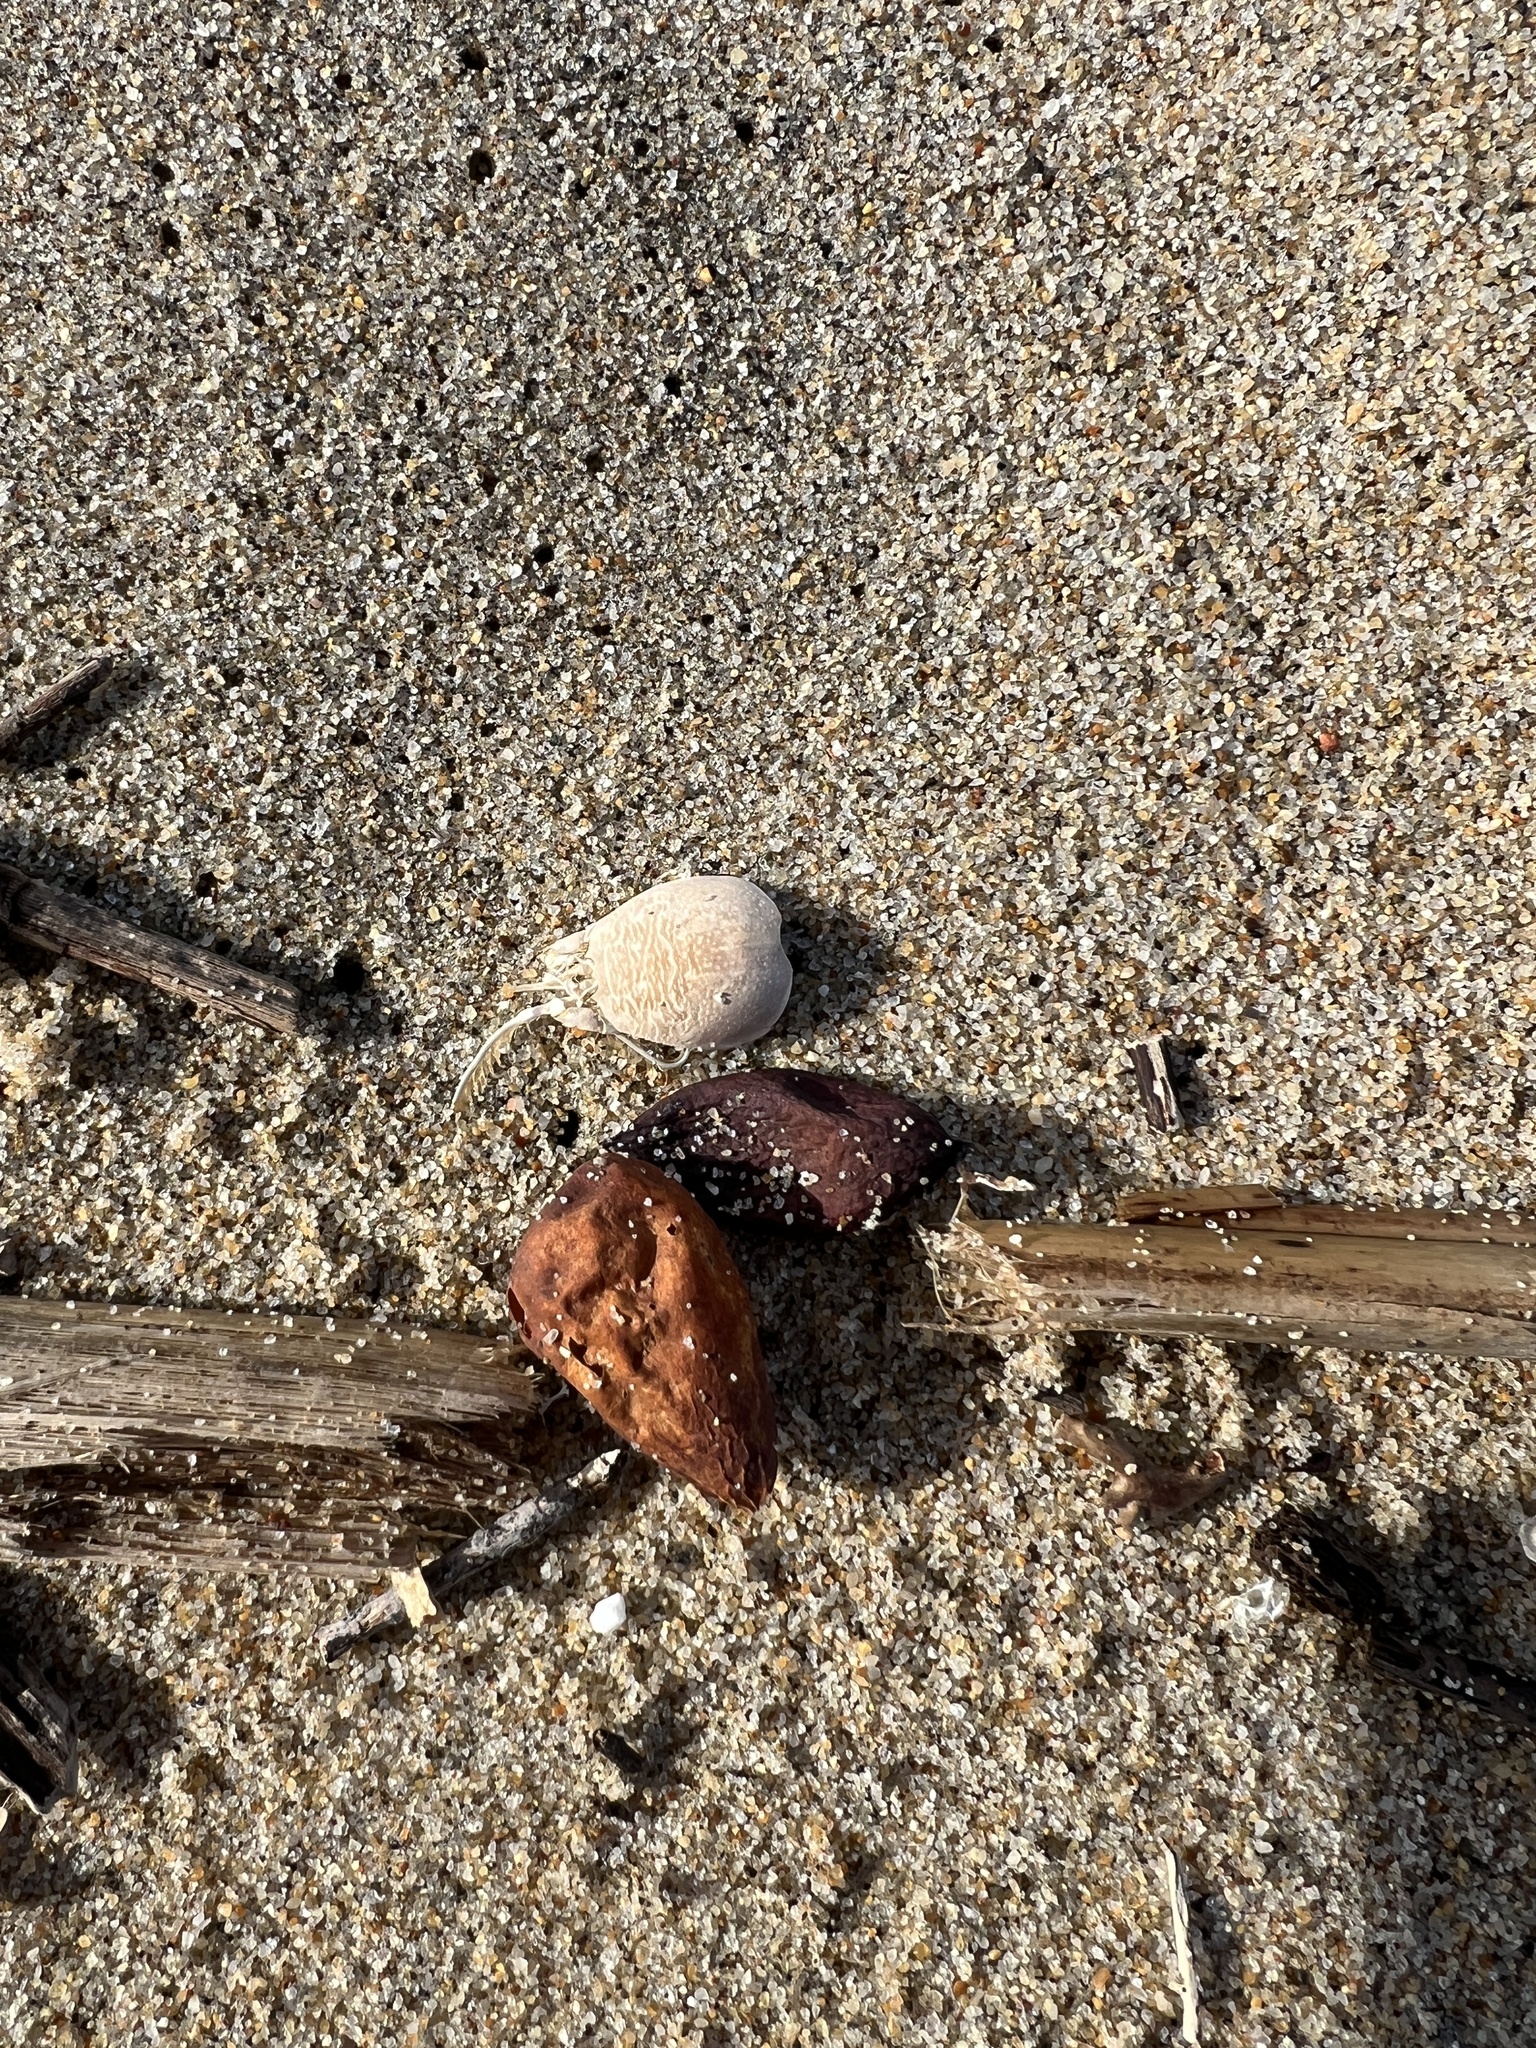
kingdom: Animalia
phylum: Arthropoda
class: Malacostraca
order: Decapoda
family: Hippidae
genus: Emerita
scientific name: Emerita analoga
